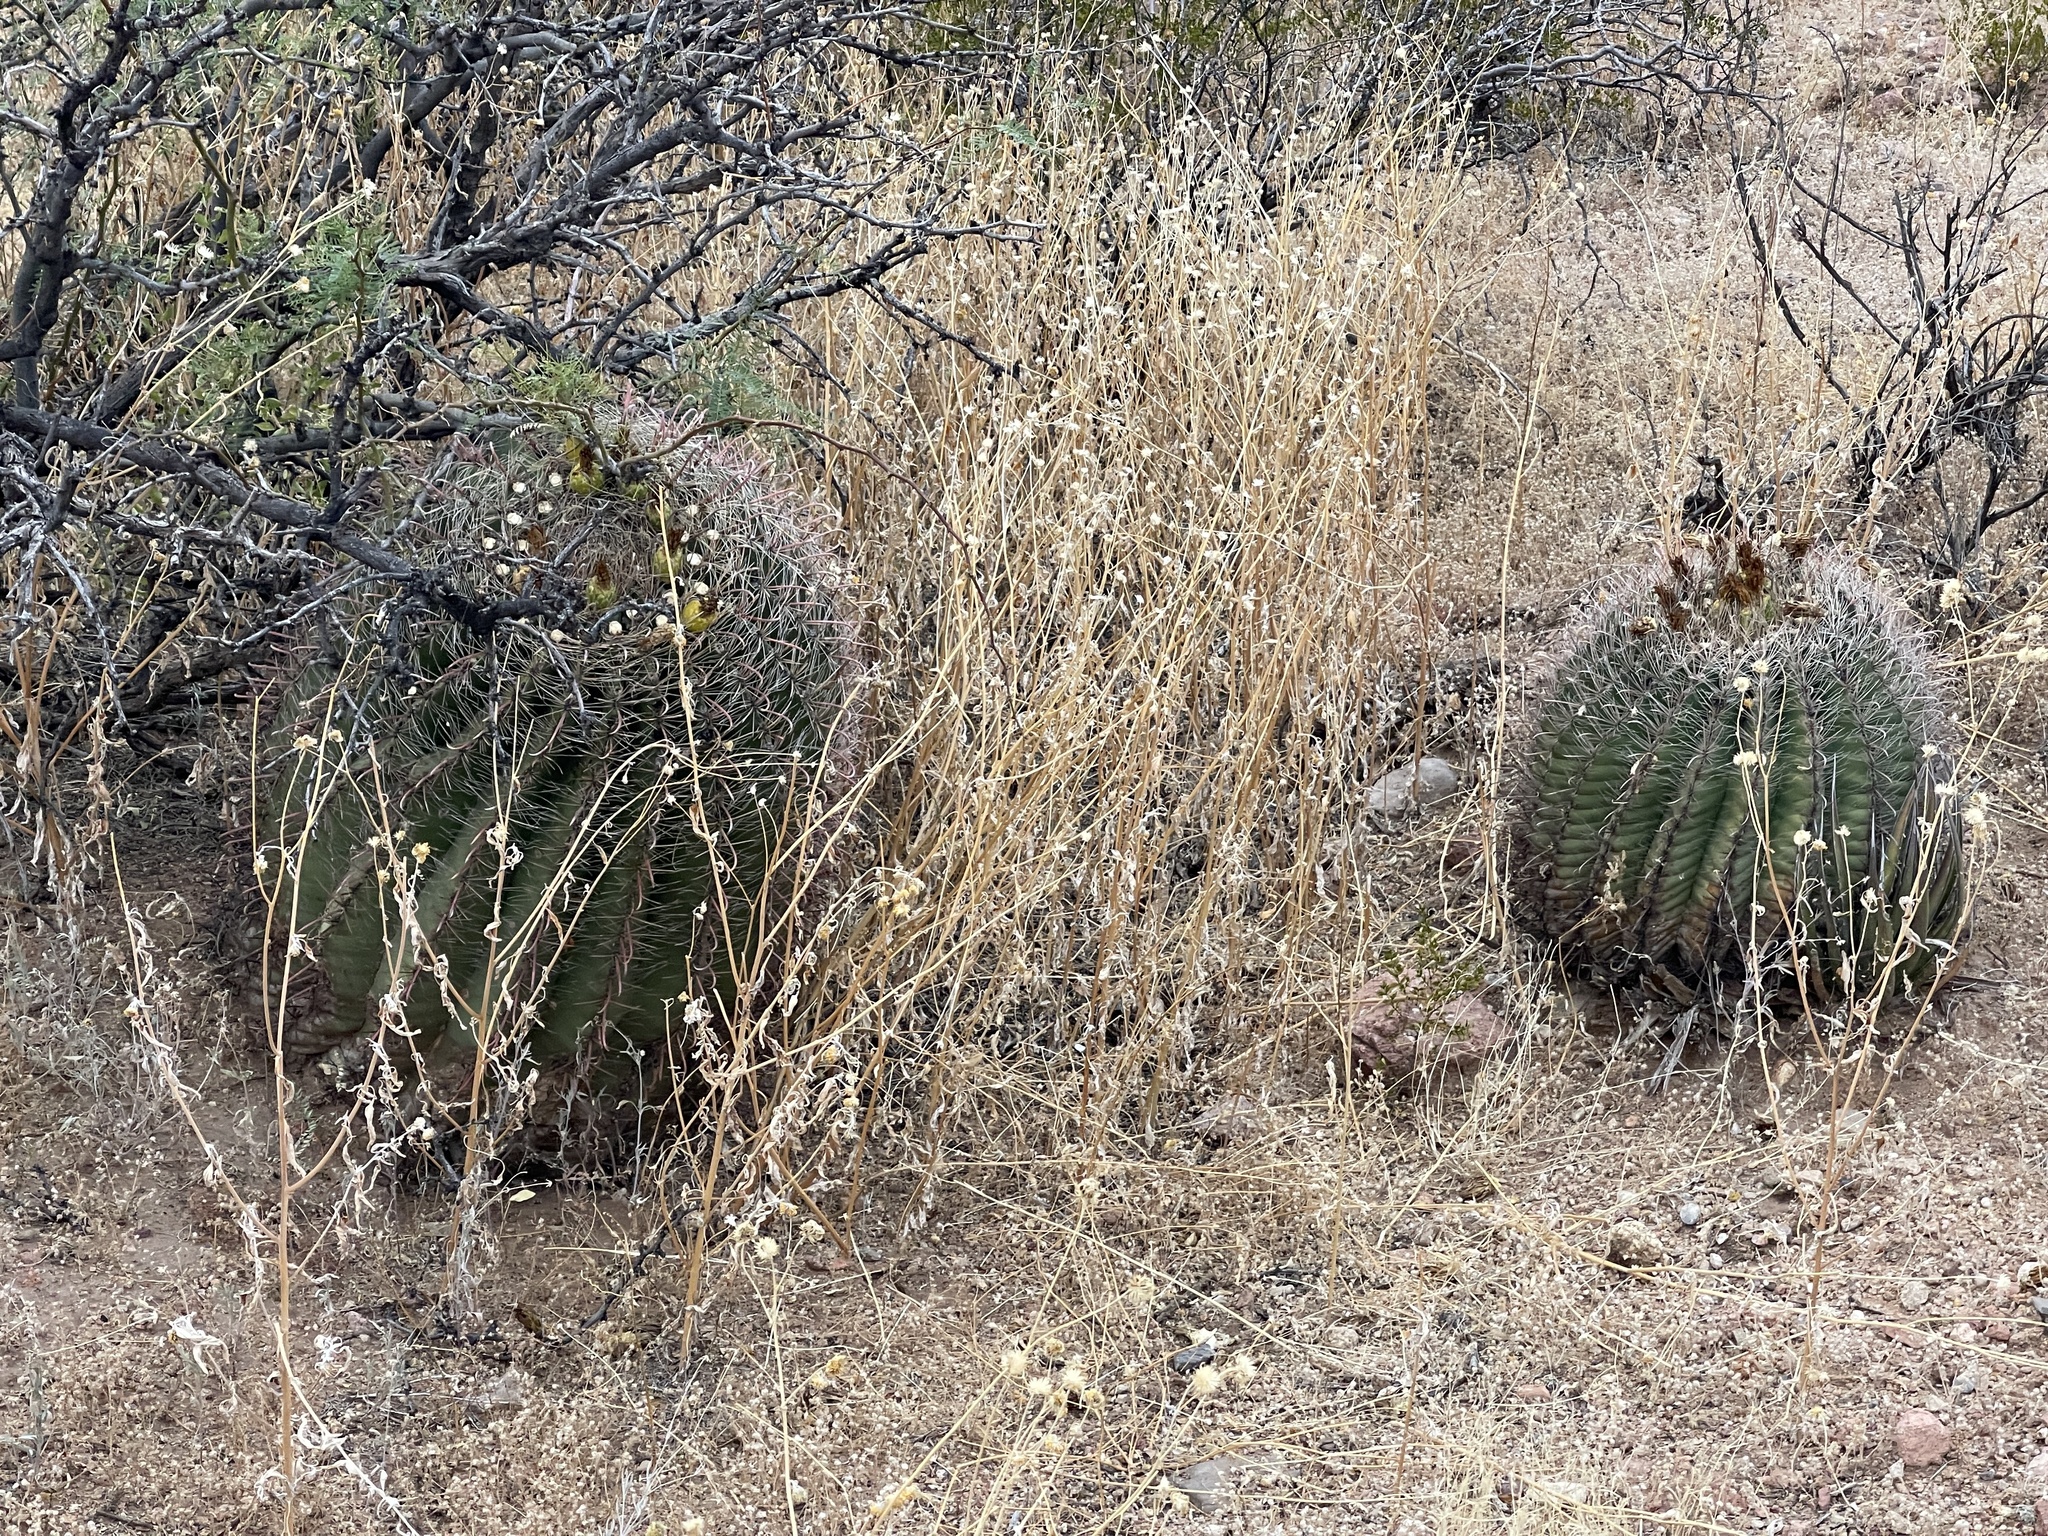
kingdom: Plantae
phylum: Tracheophyta
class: Magnoliopsida
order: Caryophyllales
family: Cactaceae
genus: Ferocactus
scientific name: Ferocactus wislizeni
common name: Candy barrel cactus
